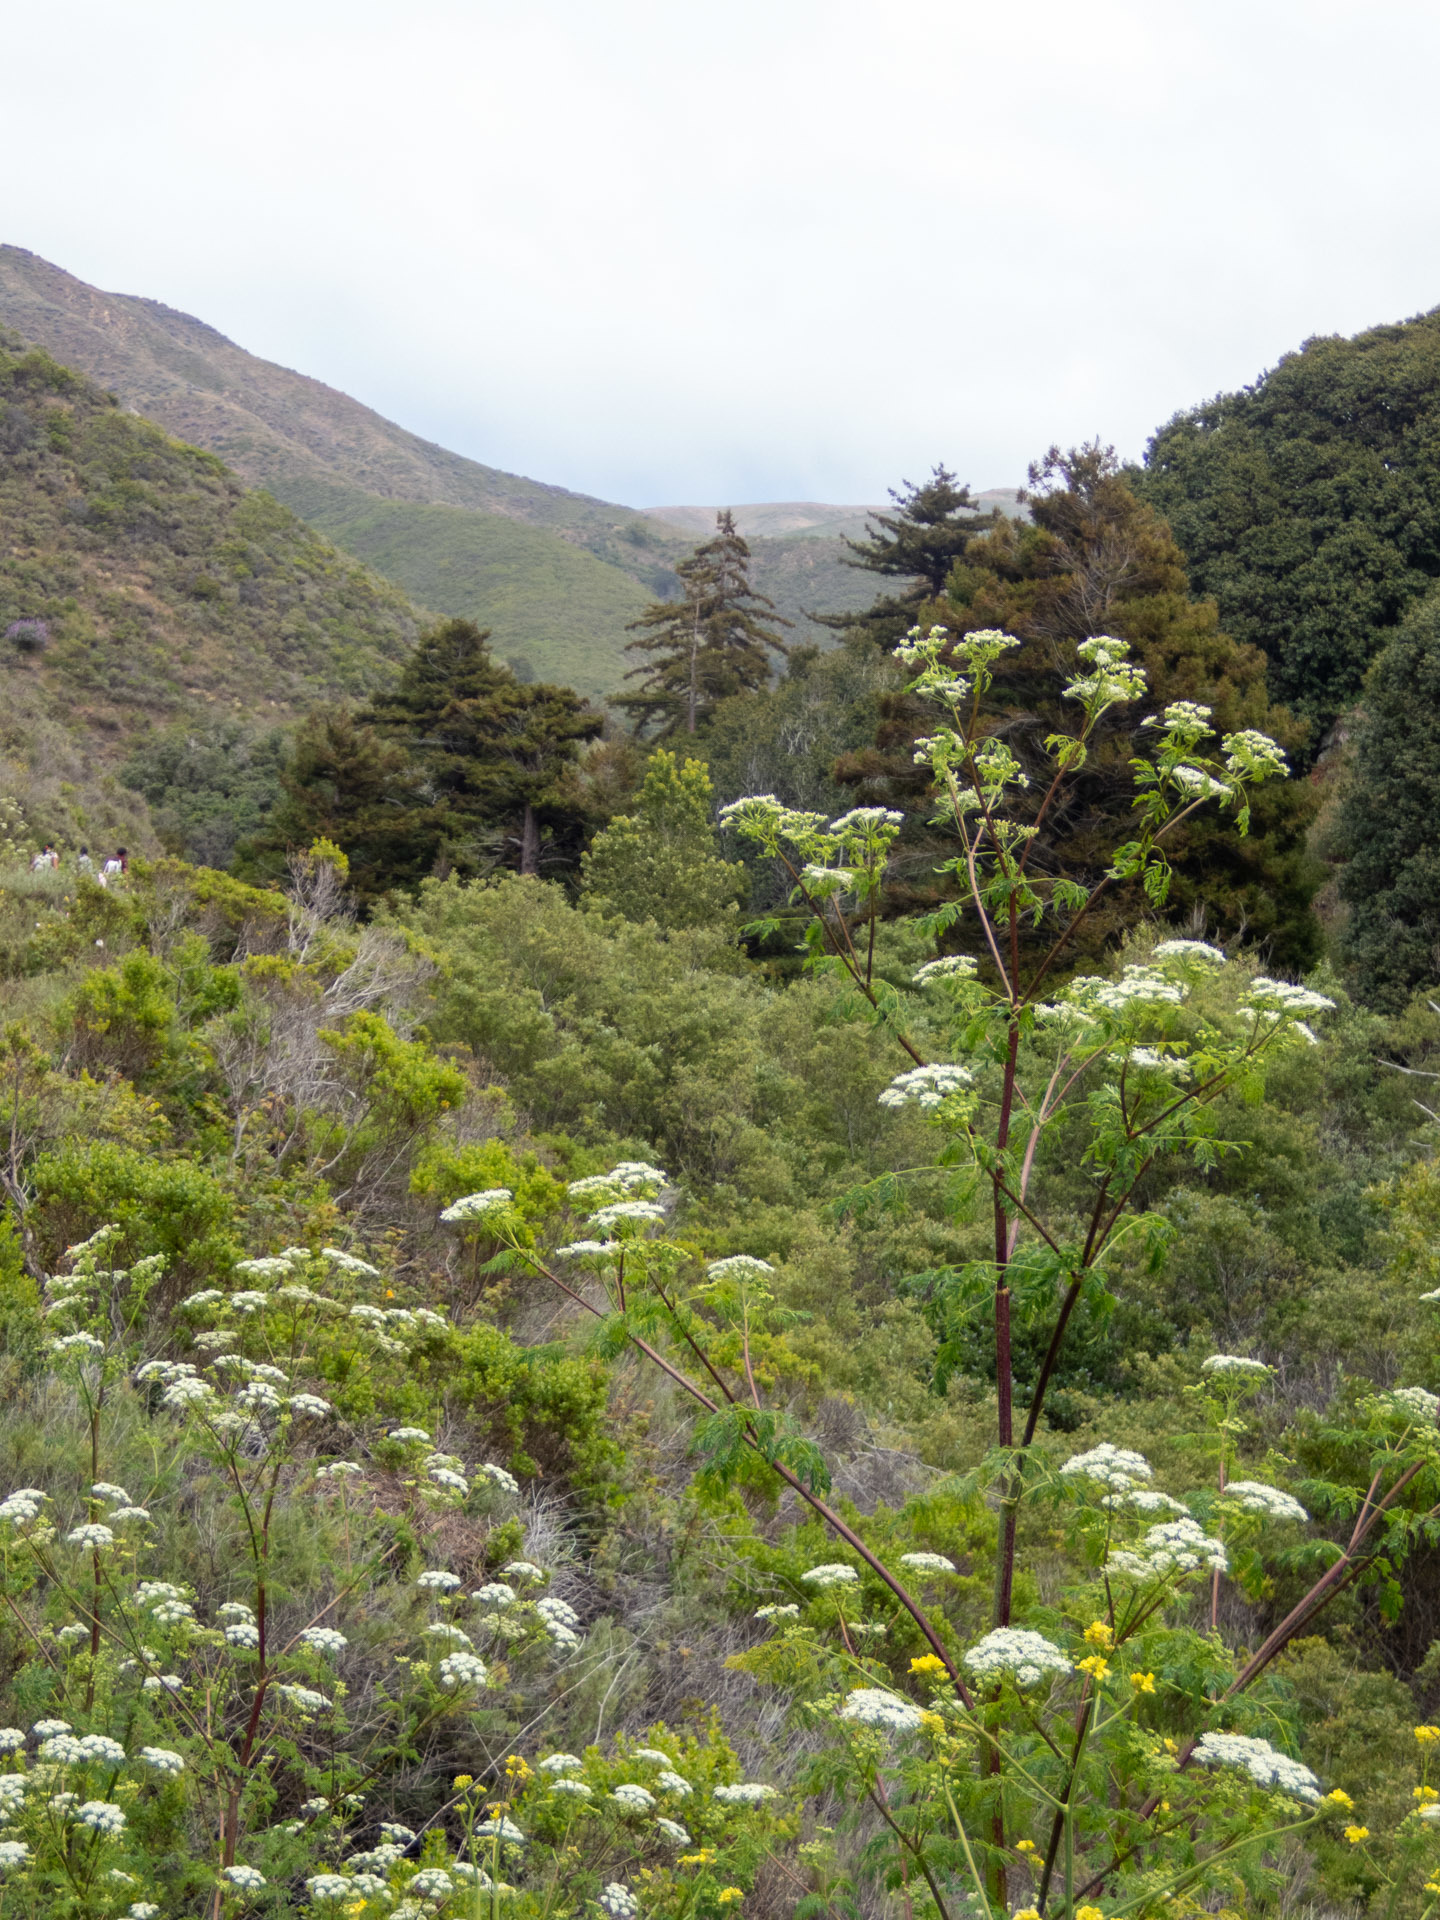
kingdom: Plantae
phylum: Tracheophyta
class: Magnoliopsida
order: Apiales
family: Apiaceae
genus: Conium
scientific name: Conium maculatum
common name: Hemlock
